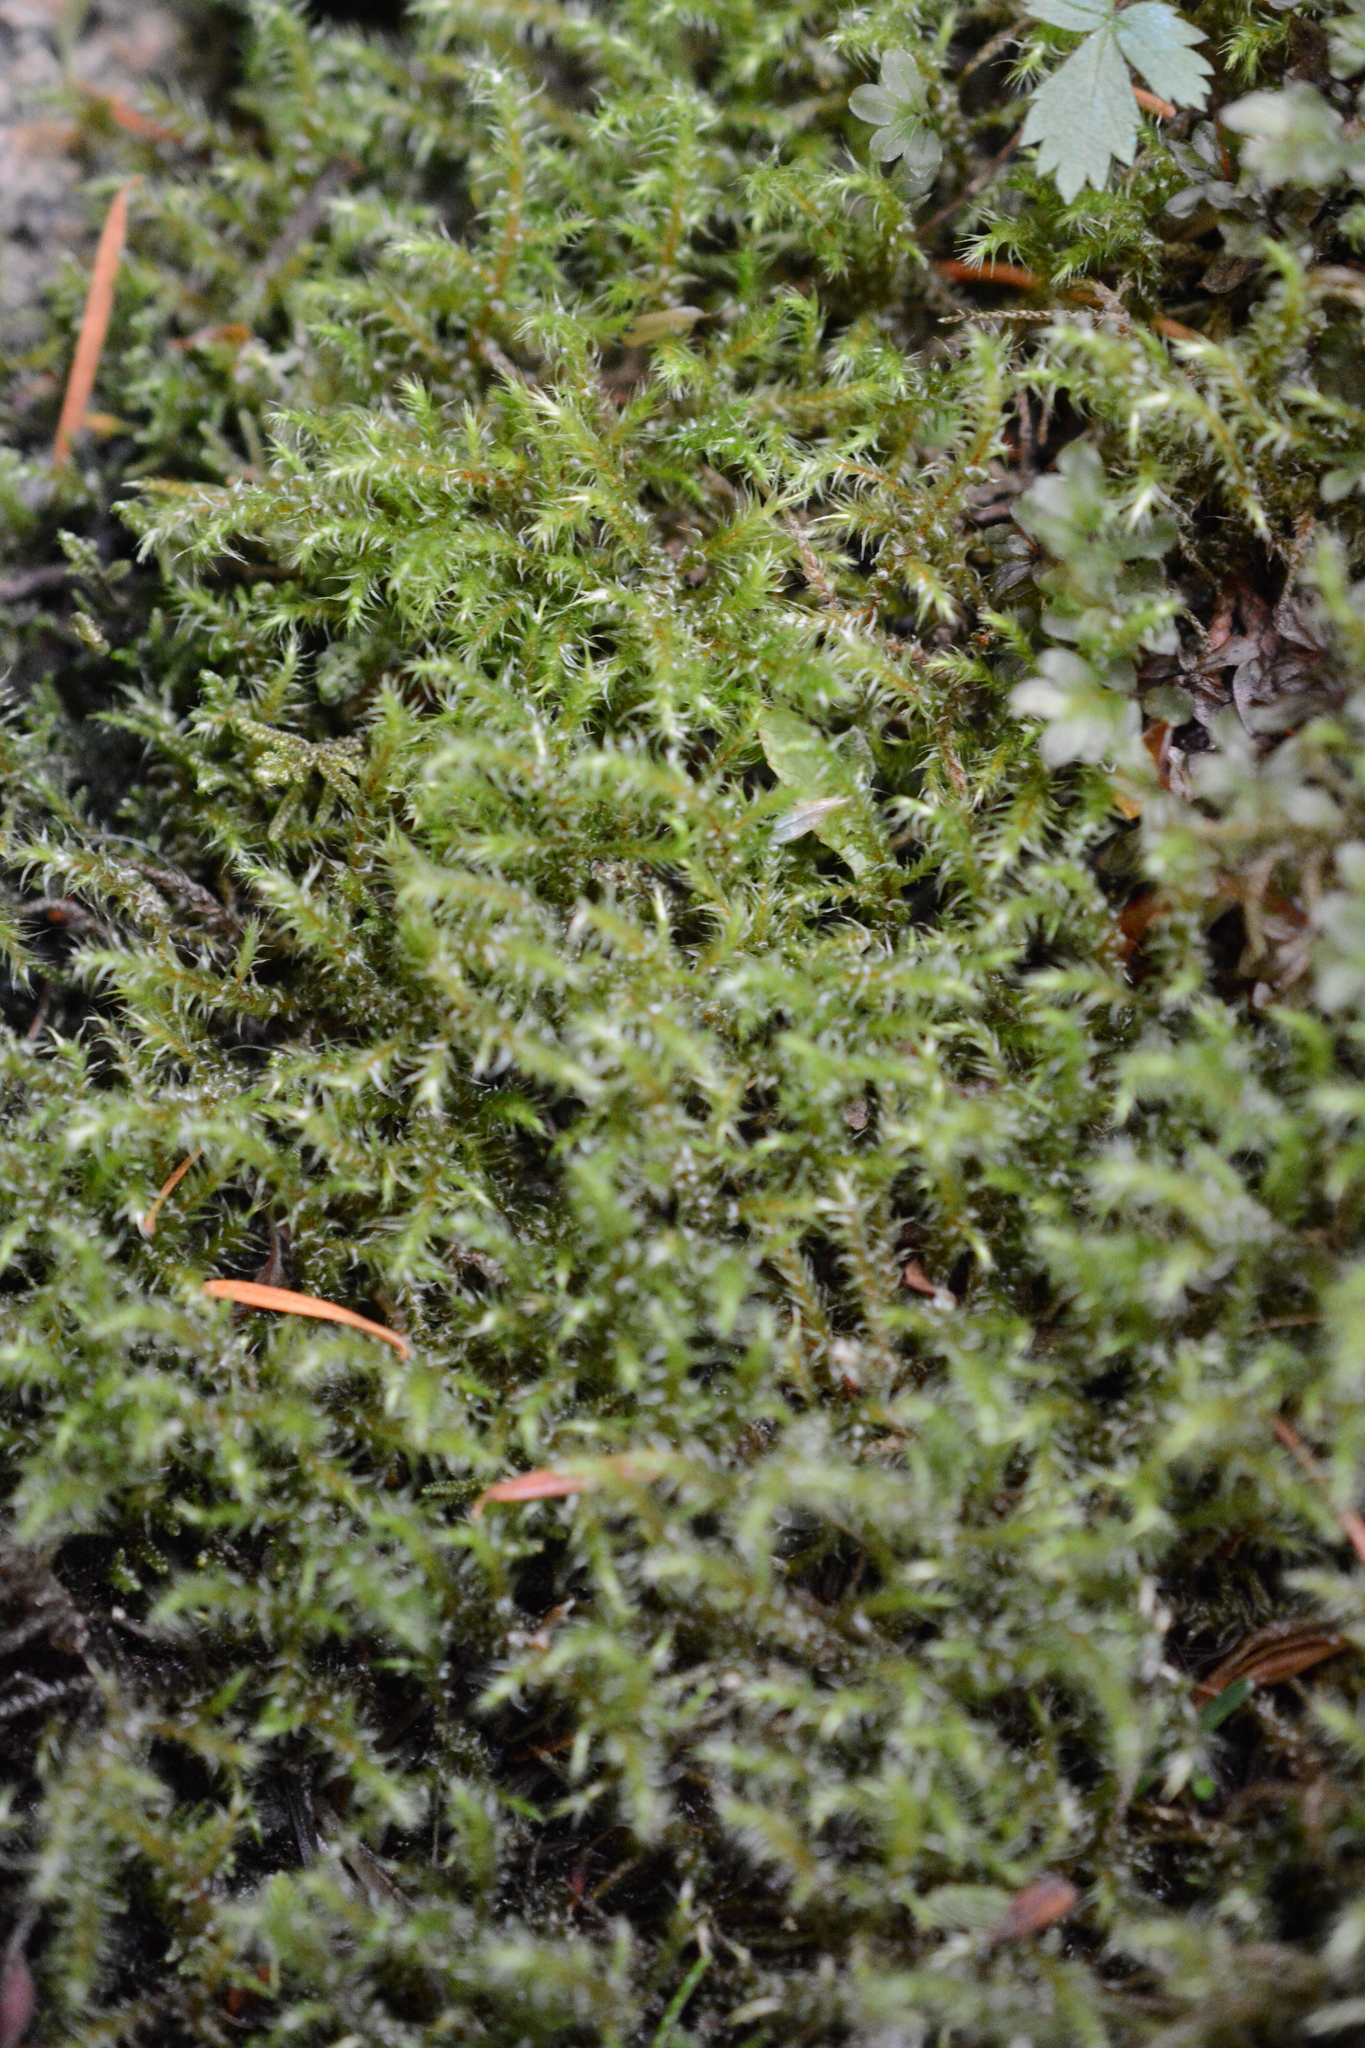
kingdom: Plantae
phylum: Bryophyta
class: Bryopsida
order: Hypnales
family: Hylocomiaceae
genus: Rhytidiadelphus
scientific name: Rhytidiadelphus loreus
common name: Lanky moss
